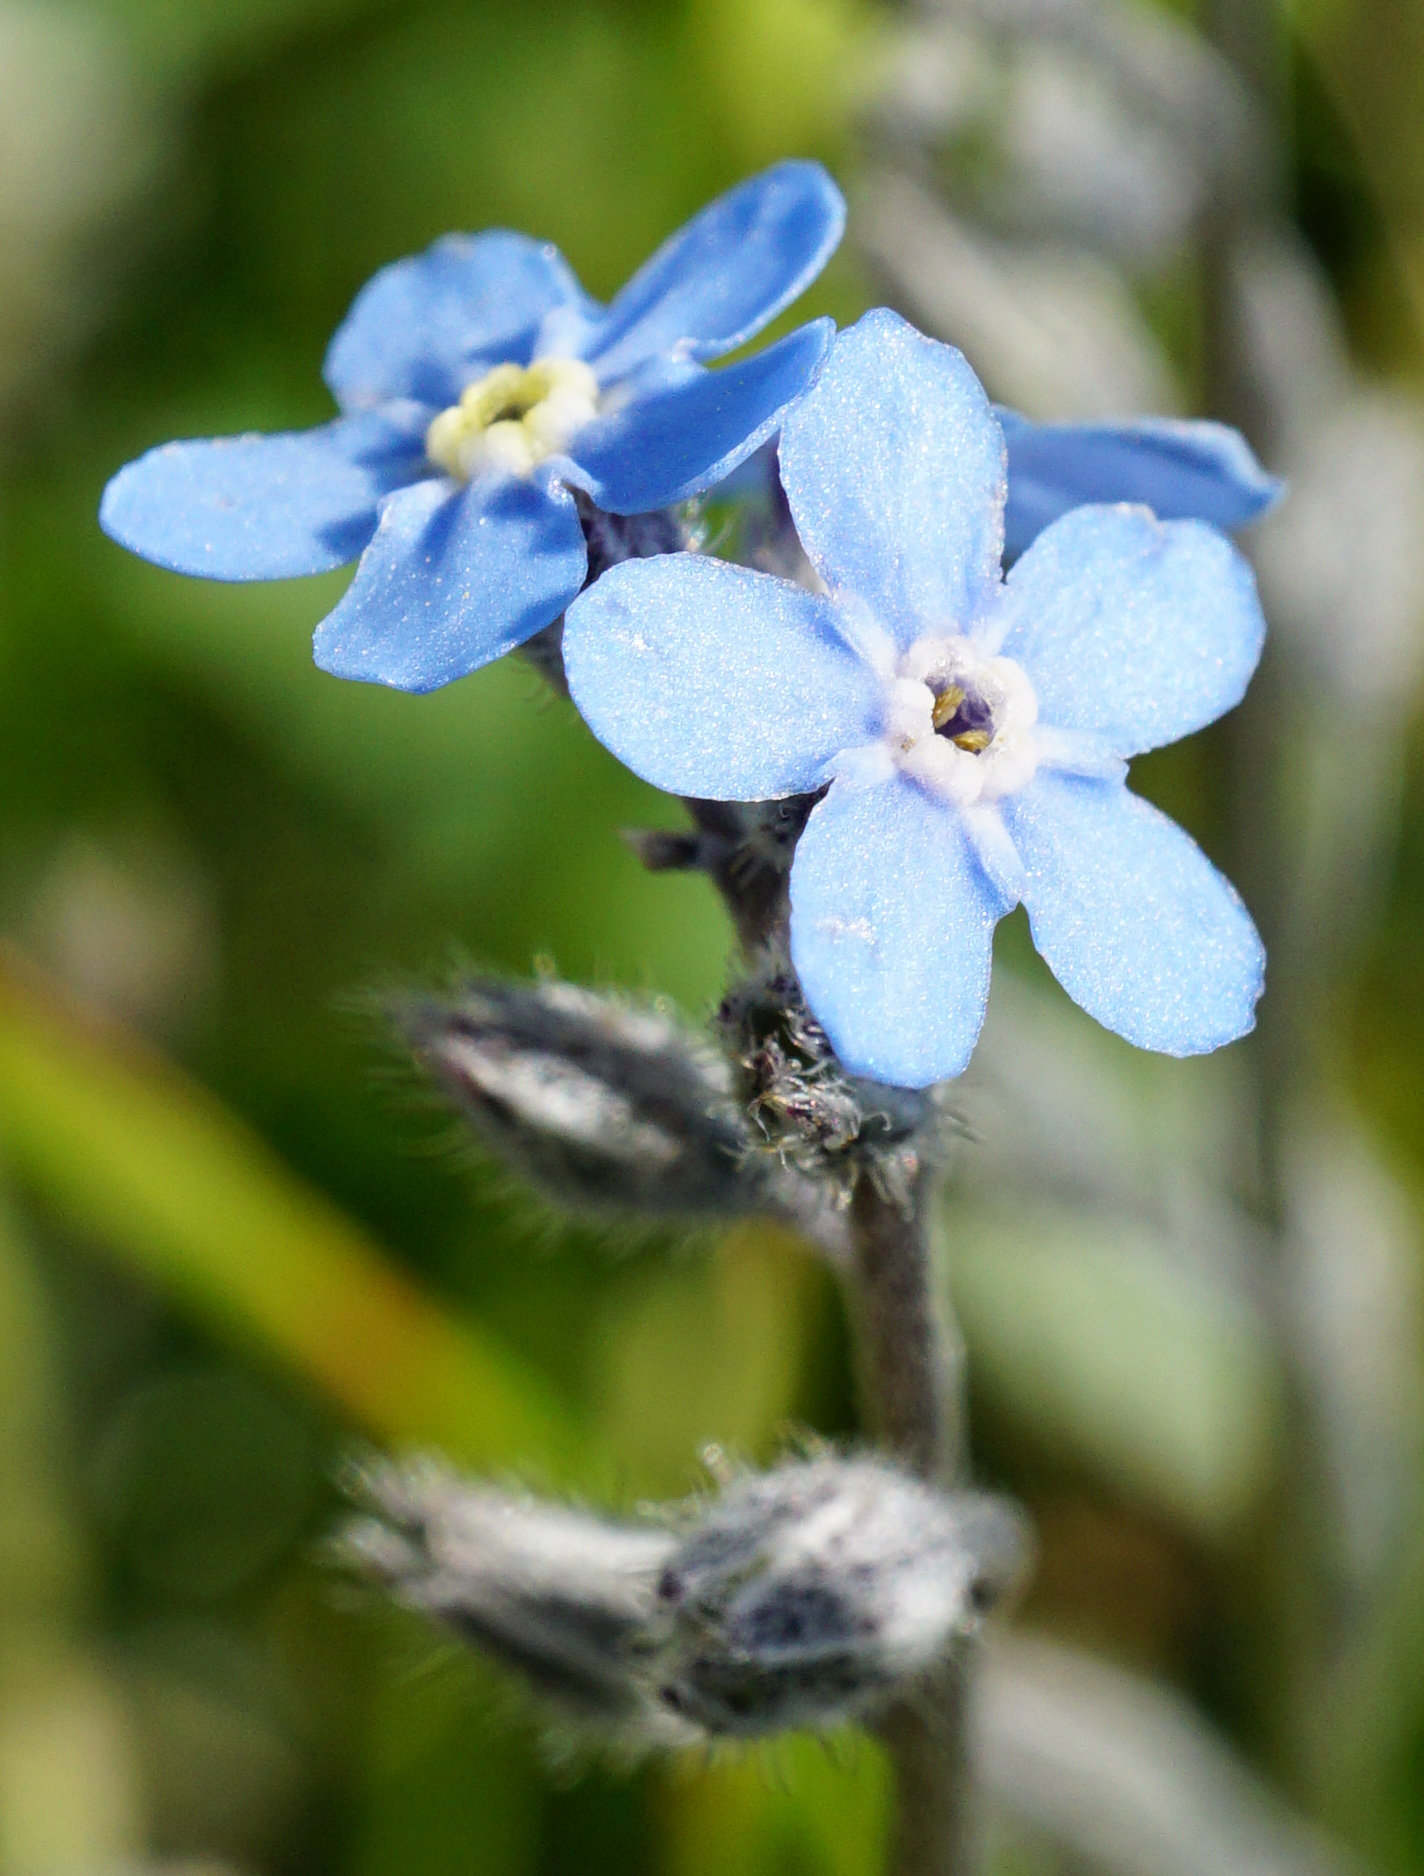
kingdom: Plantae
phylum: Tracheophyta
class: Magnoliopsida
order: Boraginales
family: Boraginaceae
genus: Myosotis
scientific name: Myosotis decumbens
